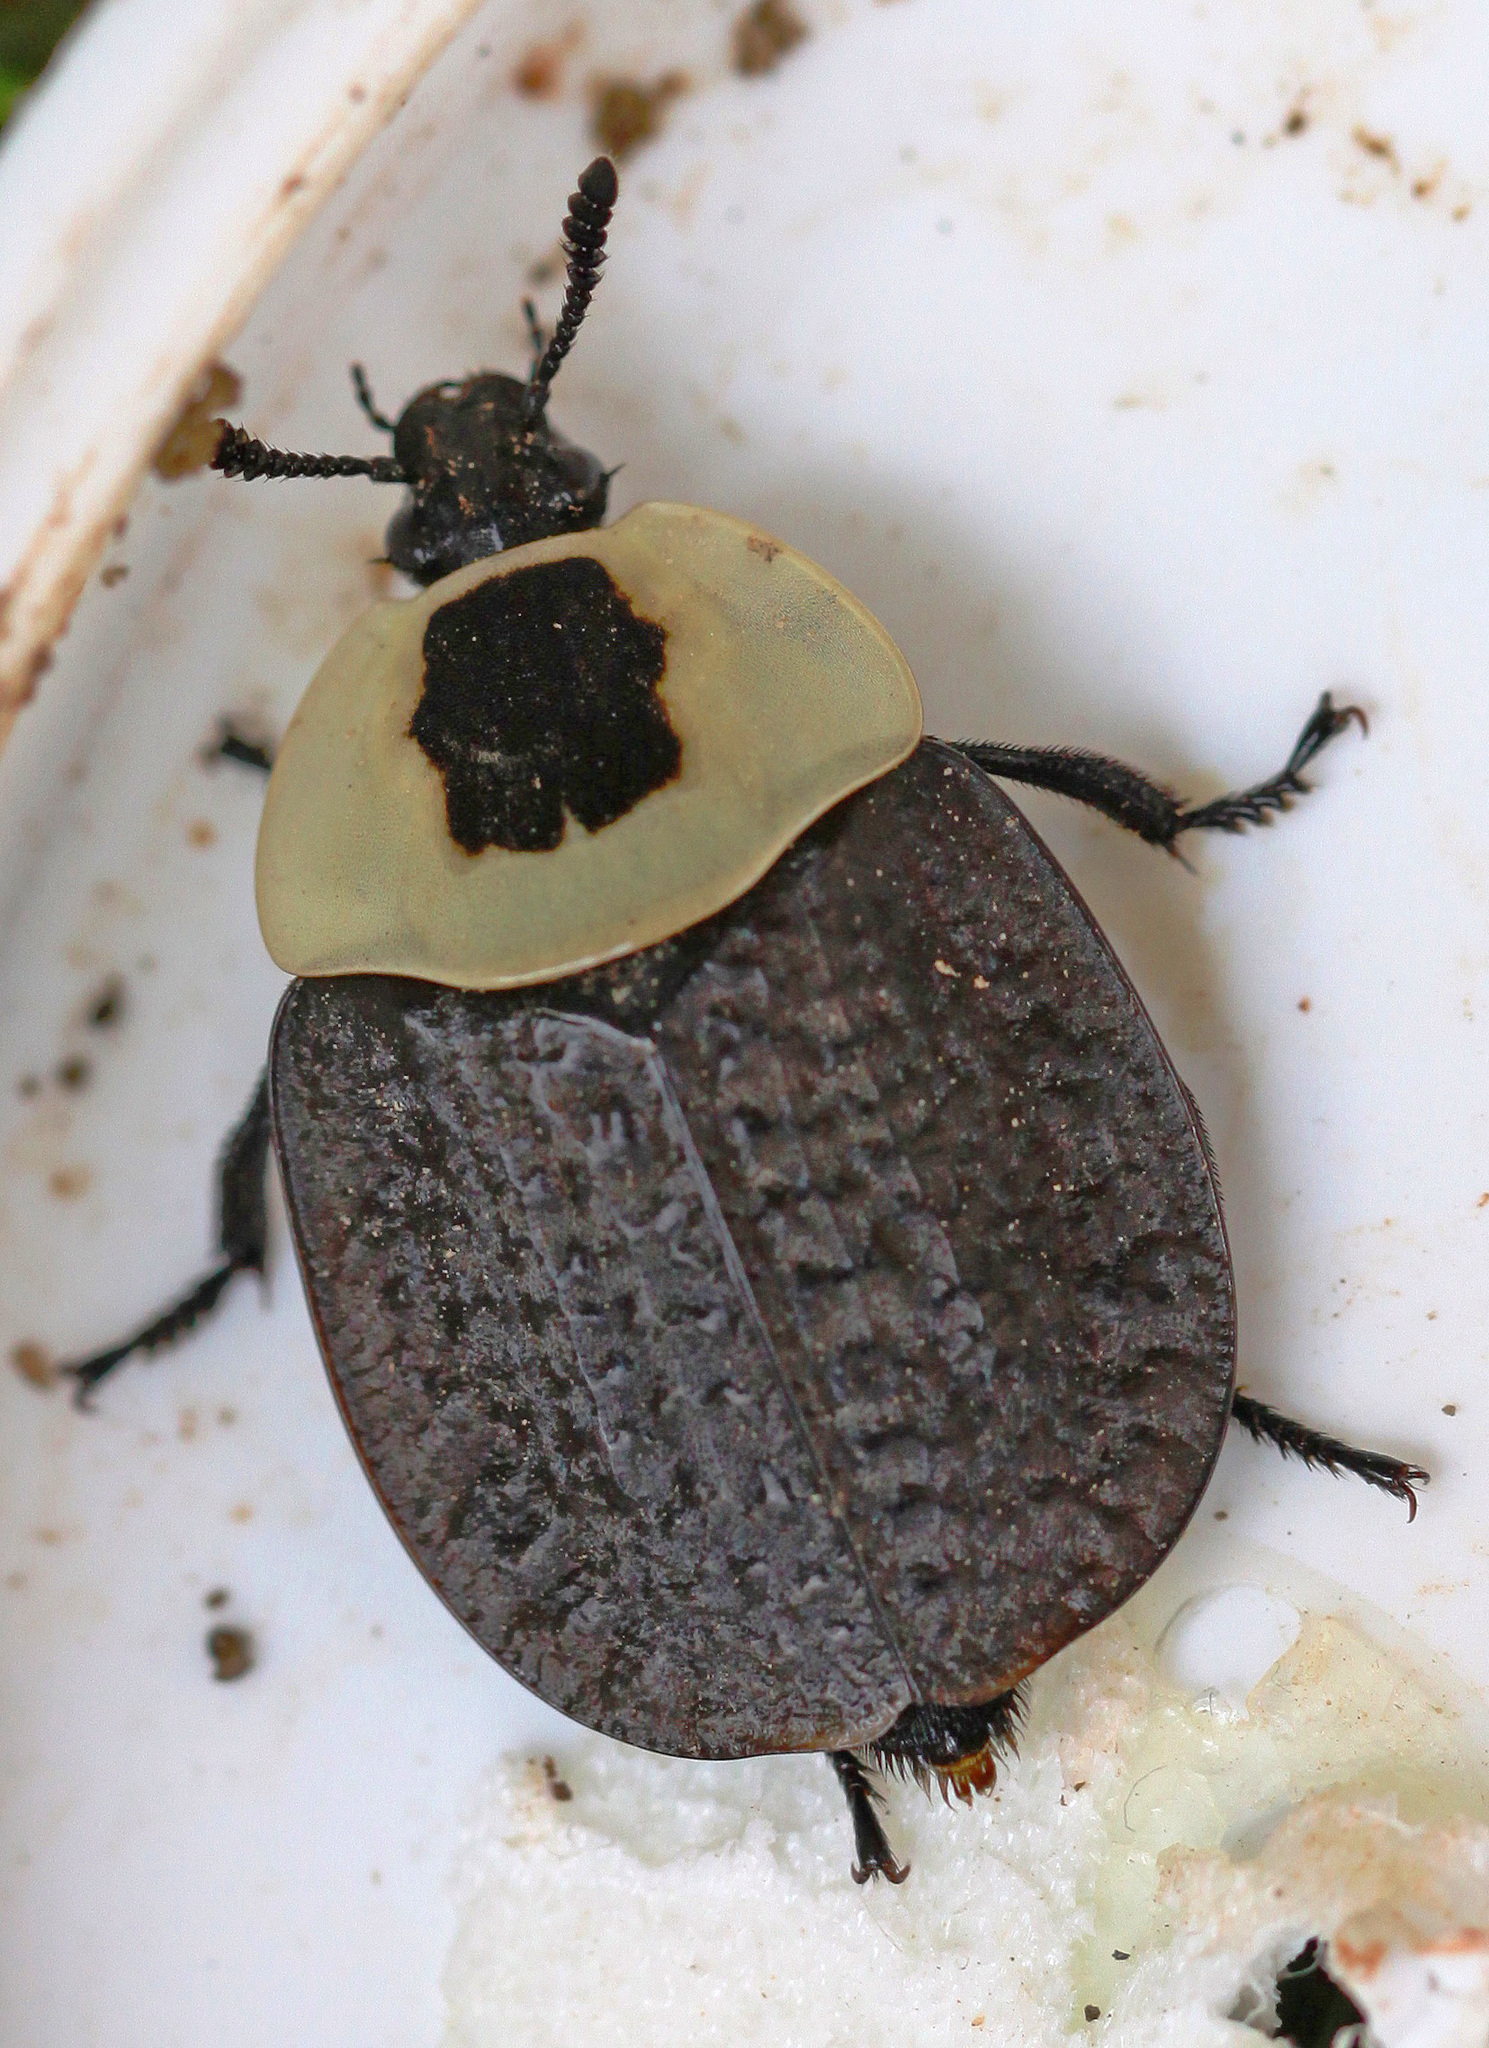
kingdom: Animalia
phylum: Arthropoda
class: Insecta
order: Coleoptera
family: Staphylinidae
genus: Necrophila
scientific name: Necrophila americana
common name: American carrion beetle
